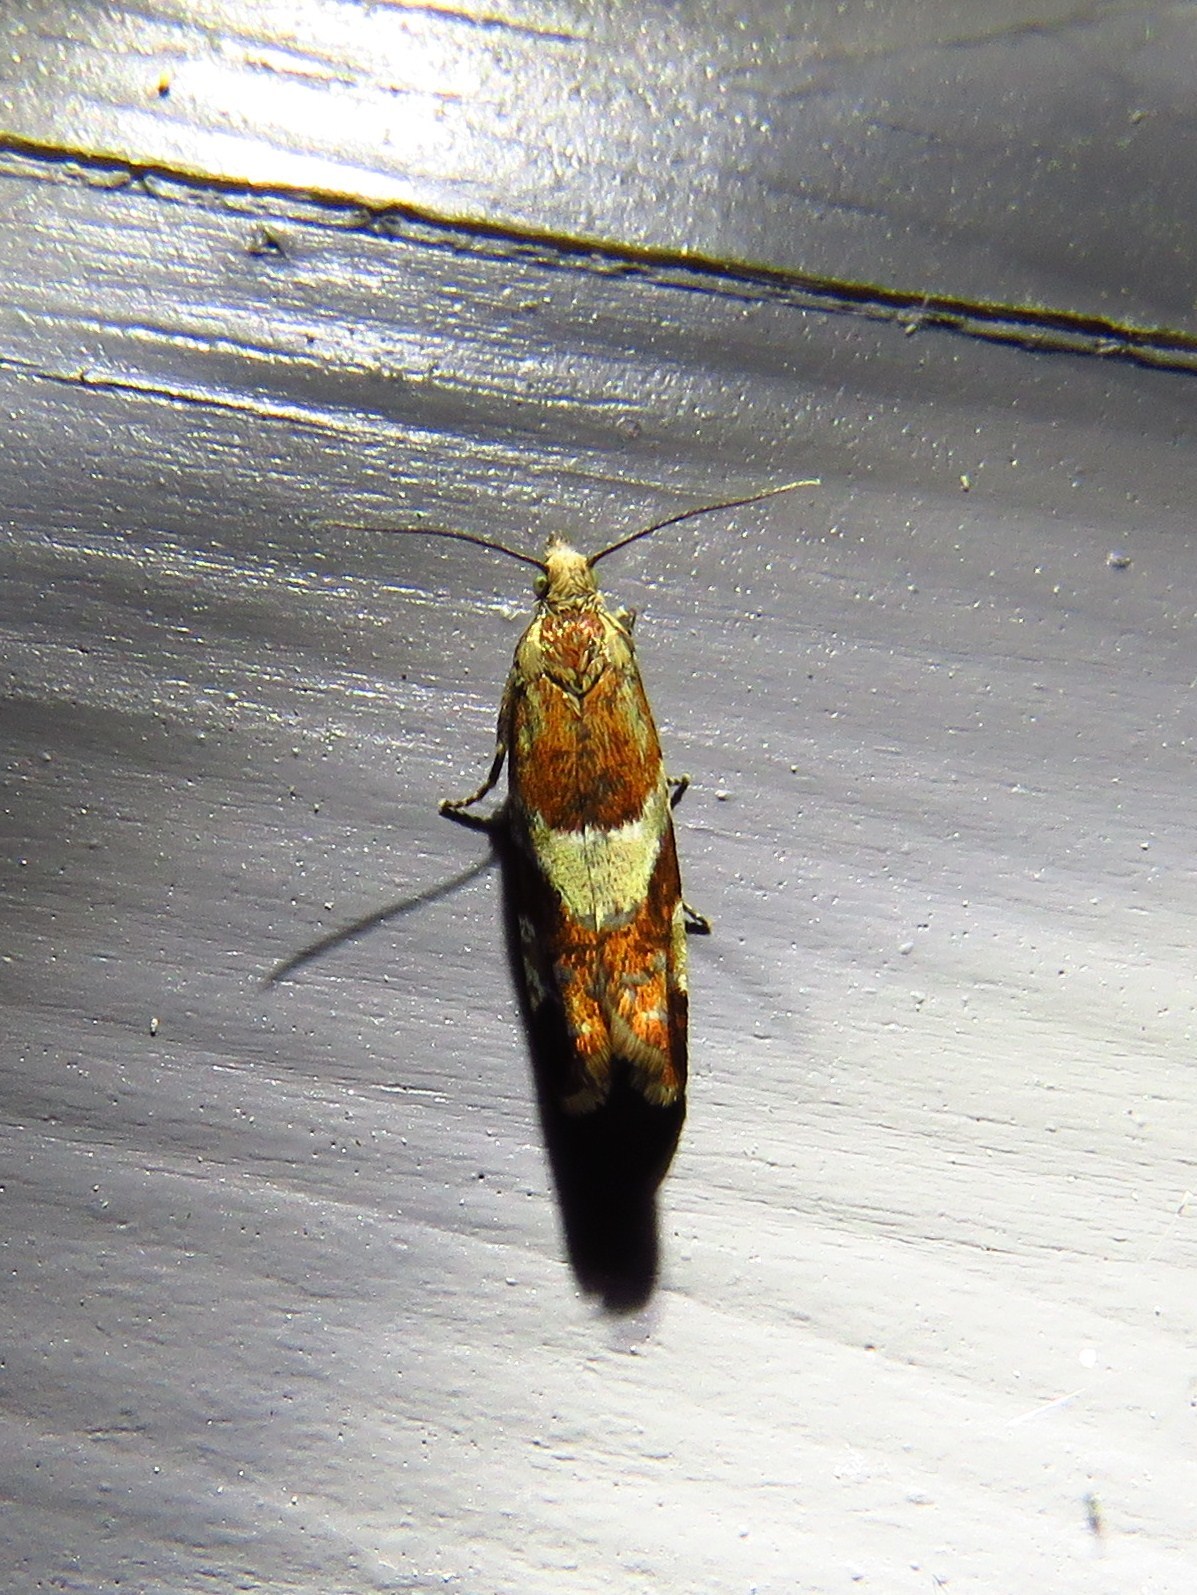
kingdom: Animalia
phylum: Arthropoda
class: Insecta
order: Lepidoptera
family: Tortricidae
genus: Epinotia
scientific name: Epinotia cruciana
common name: Willow tortrix
